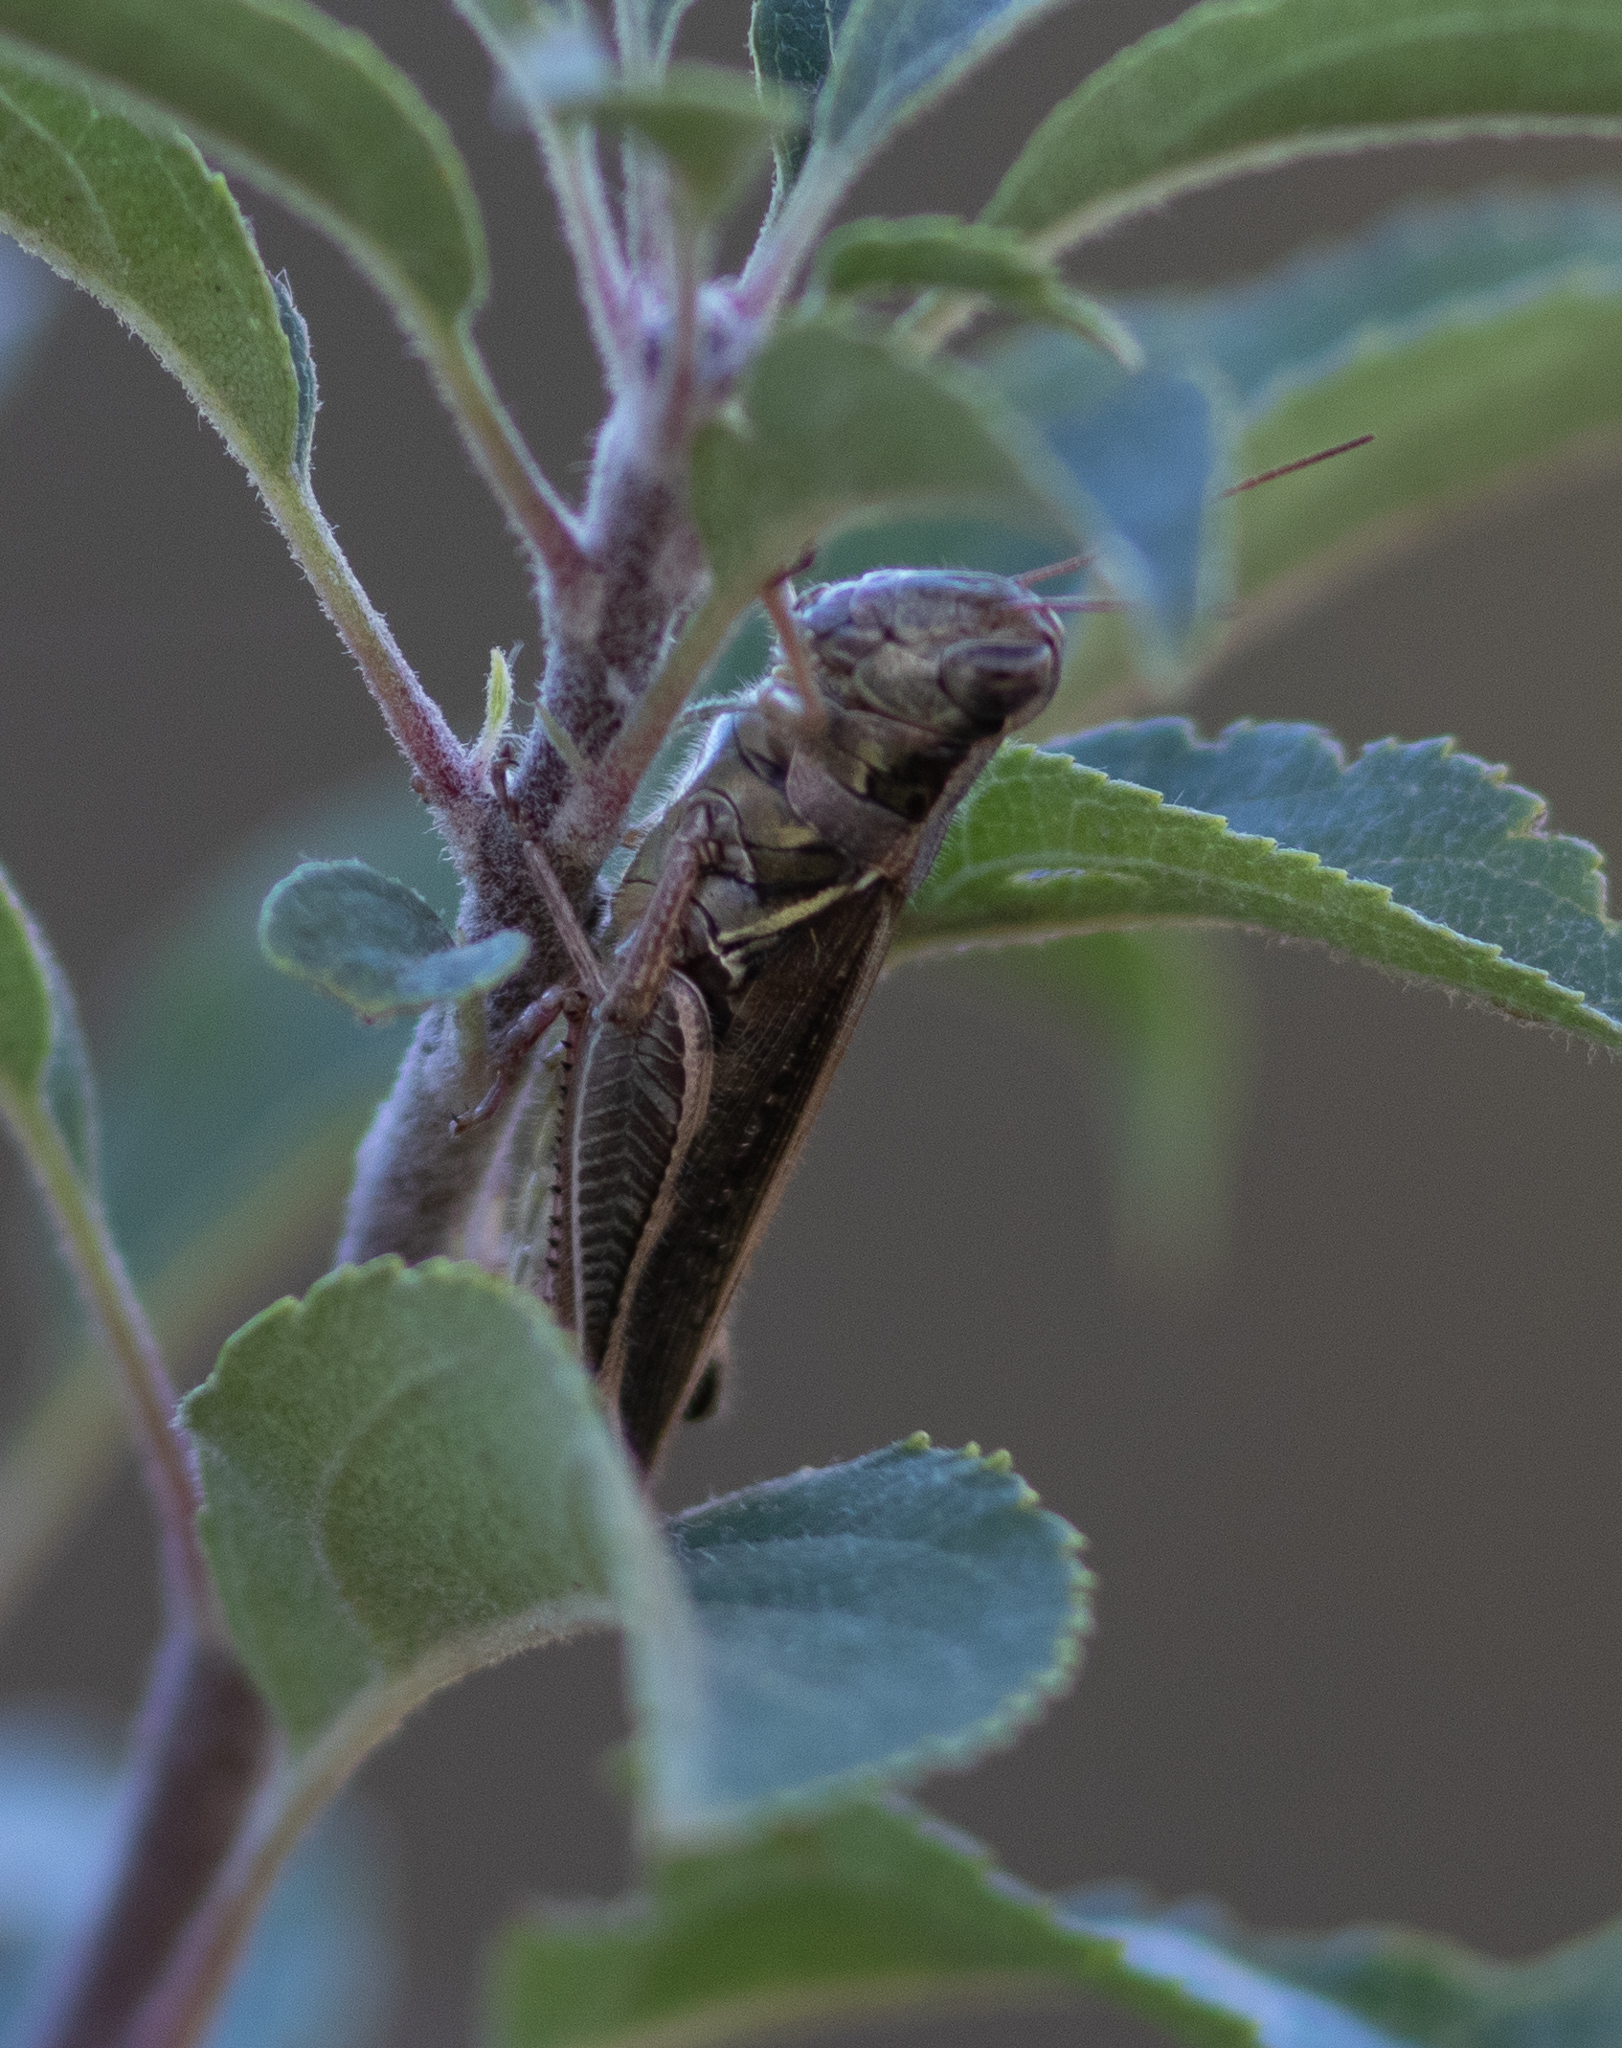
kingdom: Animalia
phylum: Arthropoda
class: Insecta
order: Orthoptera
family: Acrididae
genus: Melanoplus
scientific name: Melanoplus
